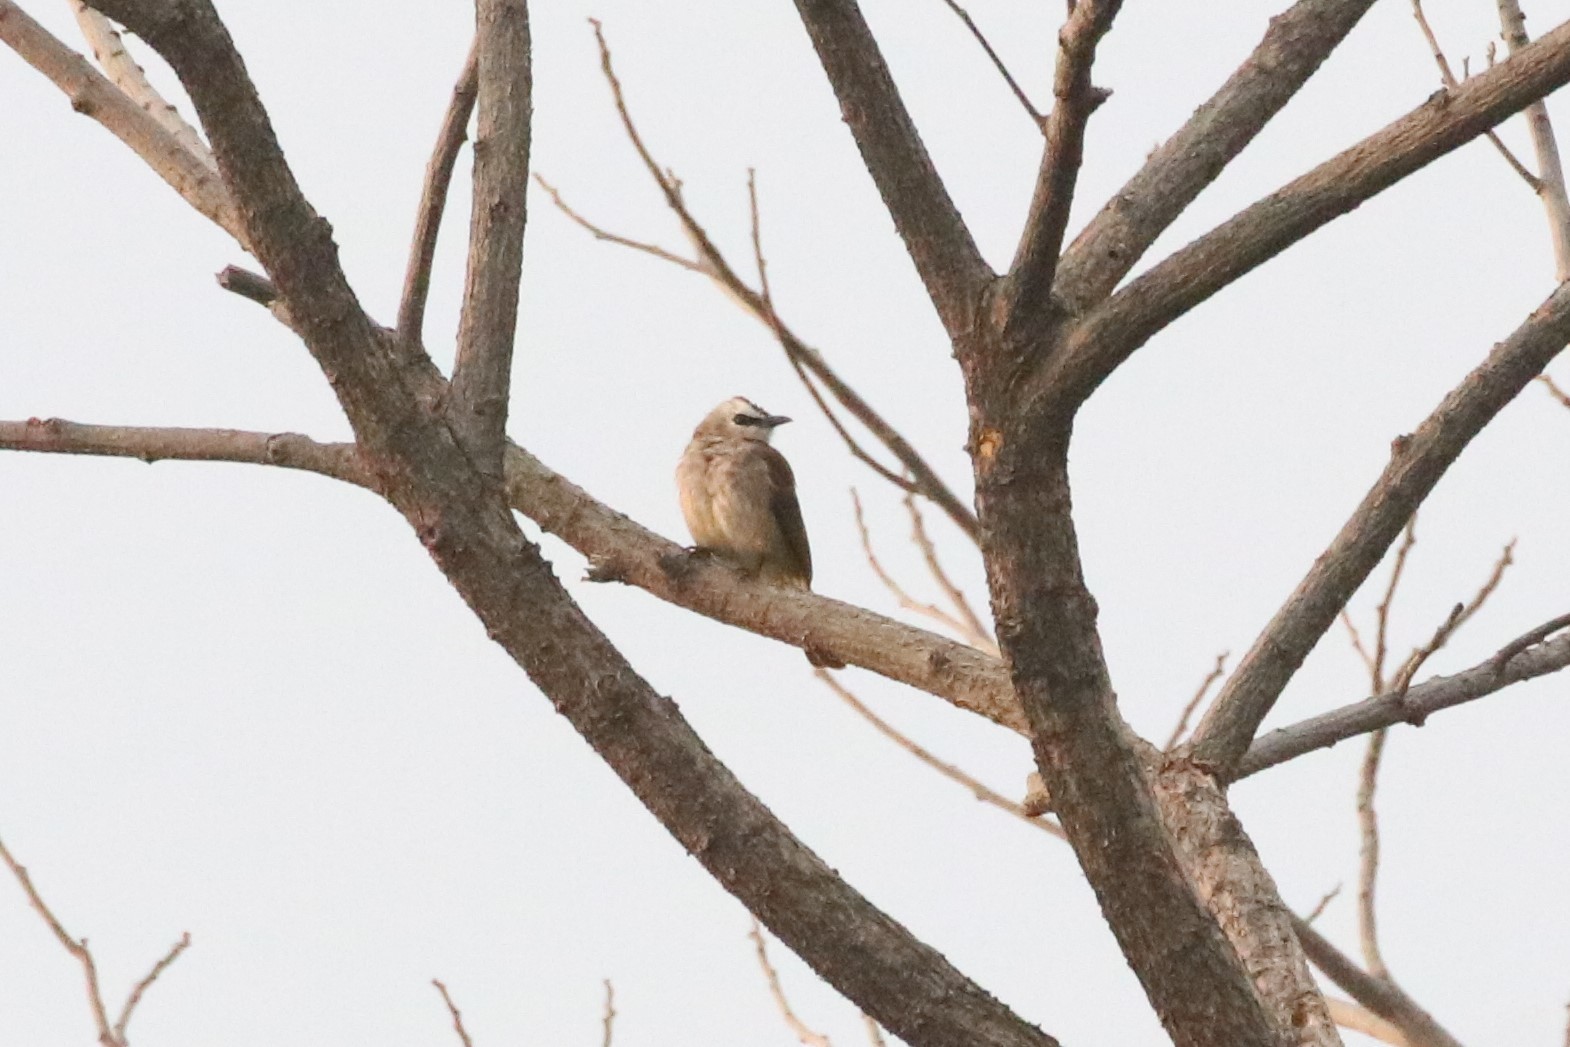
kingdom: Animalia
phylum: Chordata
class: Aves
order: Passeriformes
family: Pycnonotidae
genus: Pycnonotus
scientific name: Pycnonotus goiavier
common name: Yellow-vented bulbul
